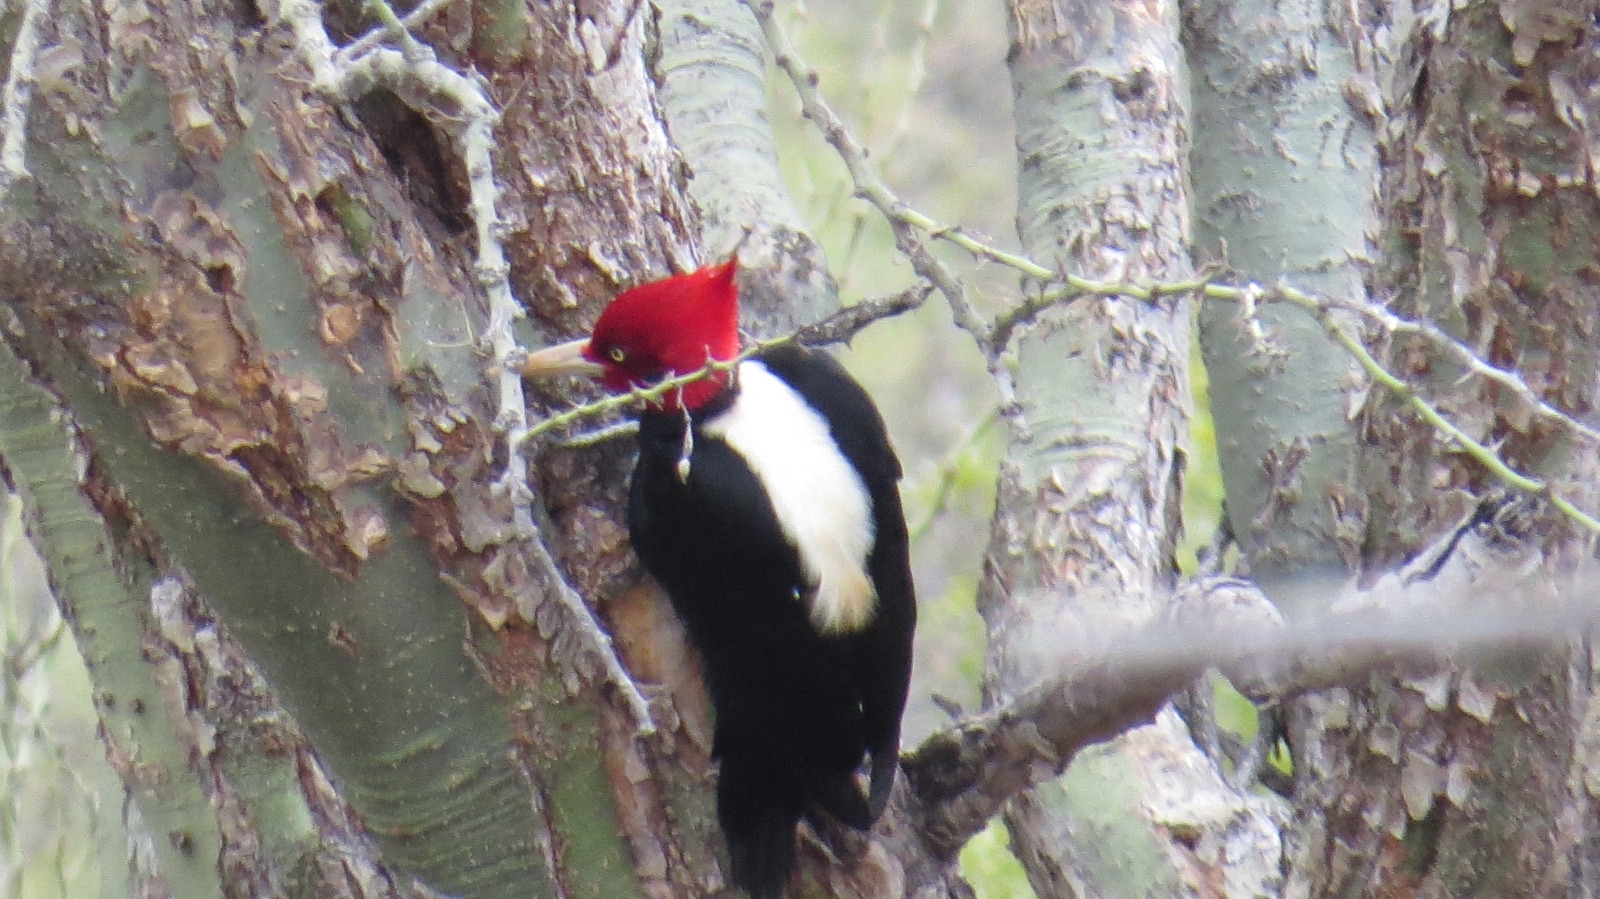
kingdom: Animalia
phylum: Chordata
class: Aves
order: Piciformes
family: Picidae
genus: Campephilus
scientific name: Campephilus leucopogon
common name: Cream-backed woodpecker
